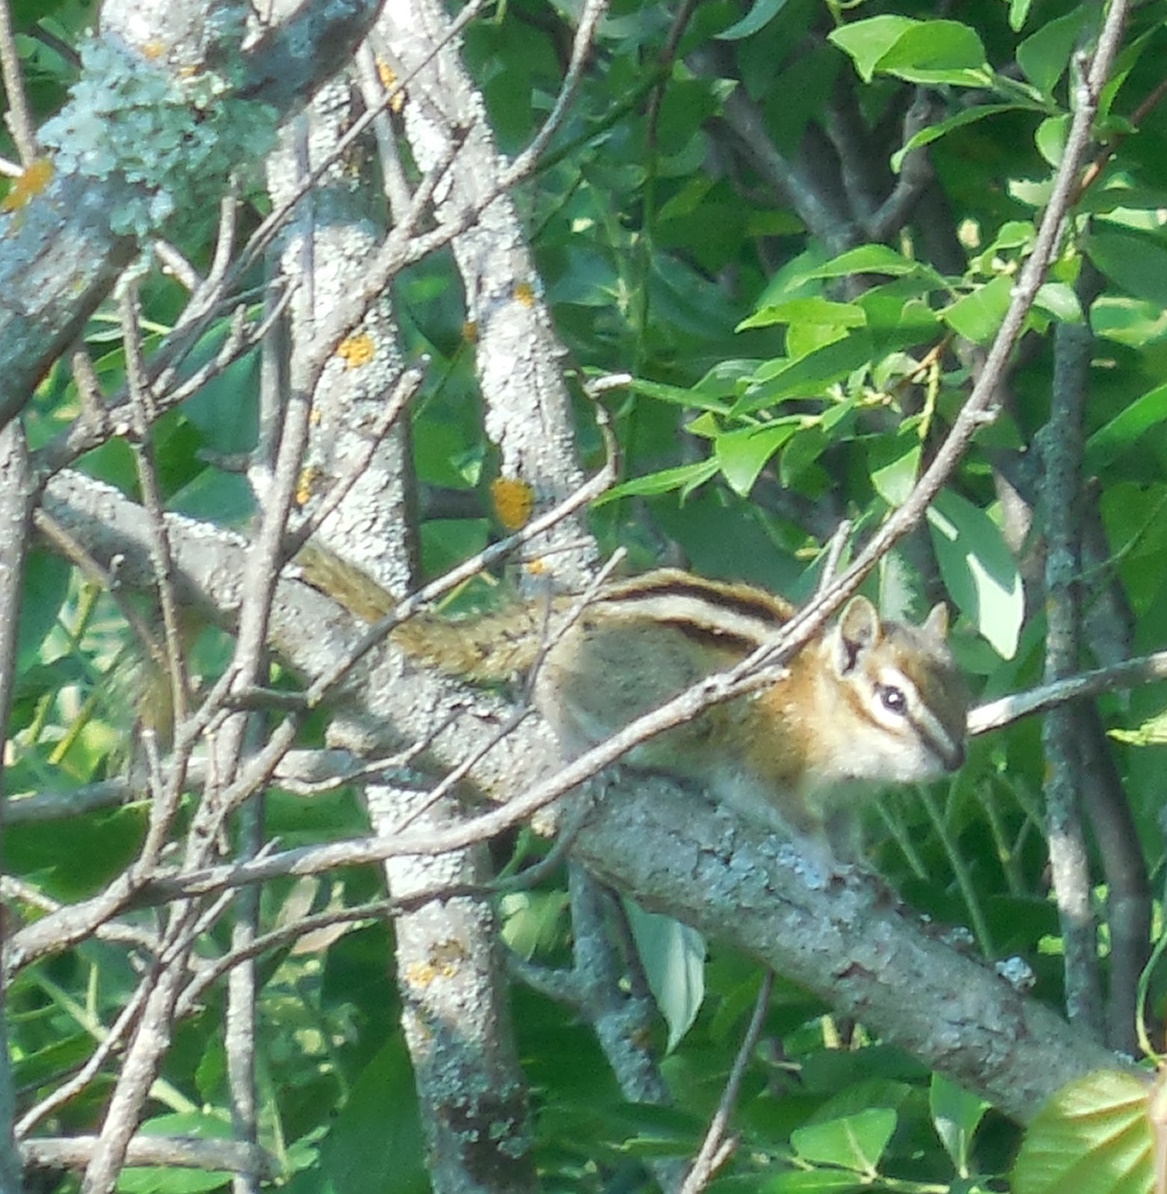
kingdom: Animalia
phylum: Chordata
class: Mammalia
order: Rodentia
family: Sciuridae
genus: Tamias
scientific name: Tamias minimus
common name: Least chipmunk
